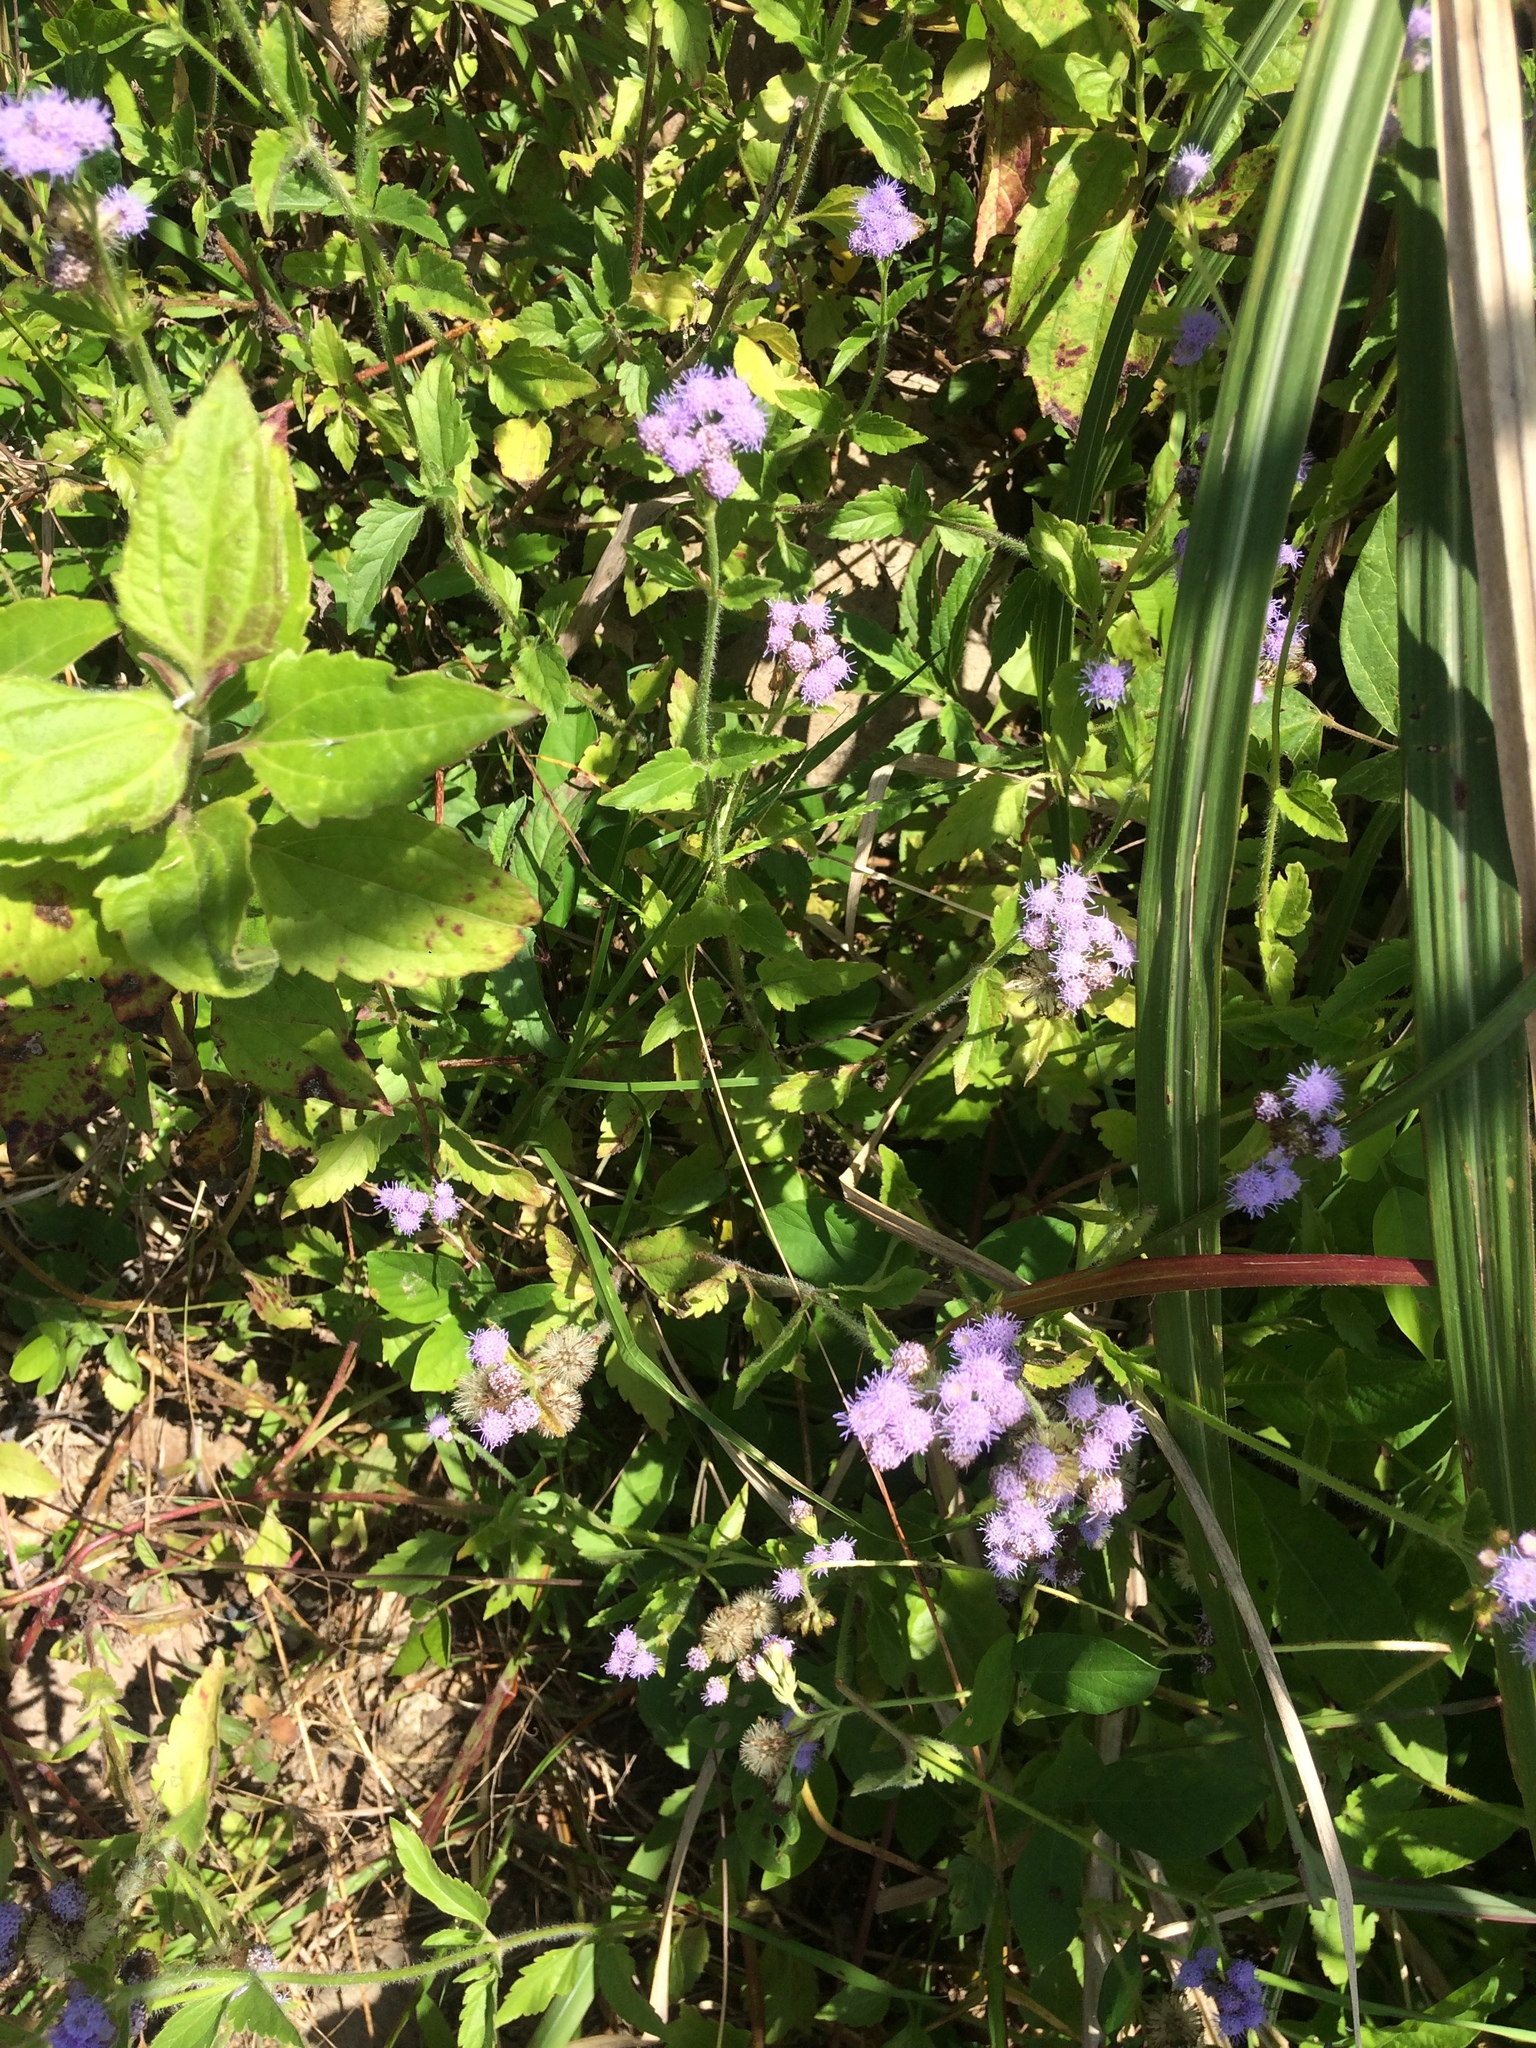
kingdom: Plantae
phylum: Tracheophyta
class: Magnoliopsida
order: Asterales
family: Asteraceae
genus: Praxelis
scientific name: Praxelis clematidea
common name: Praxelis
